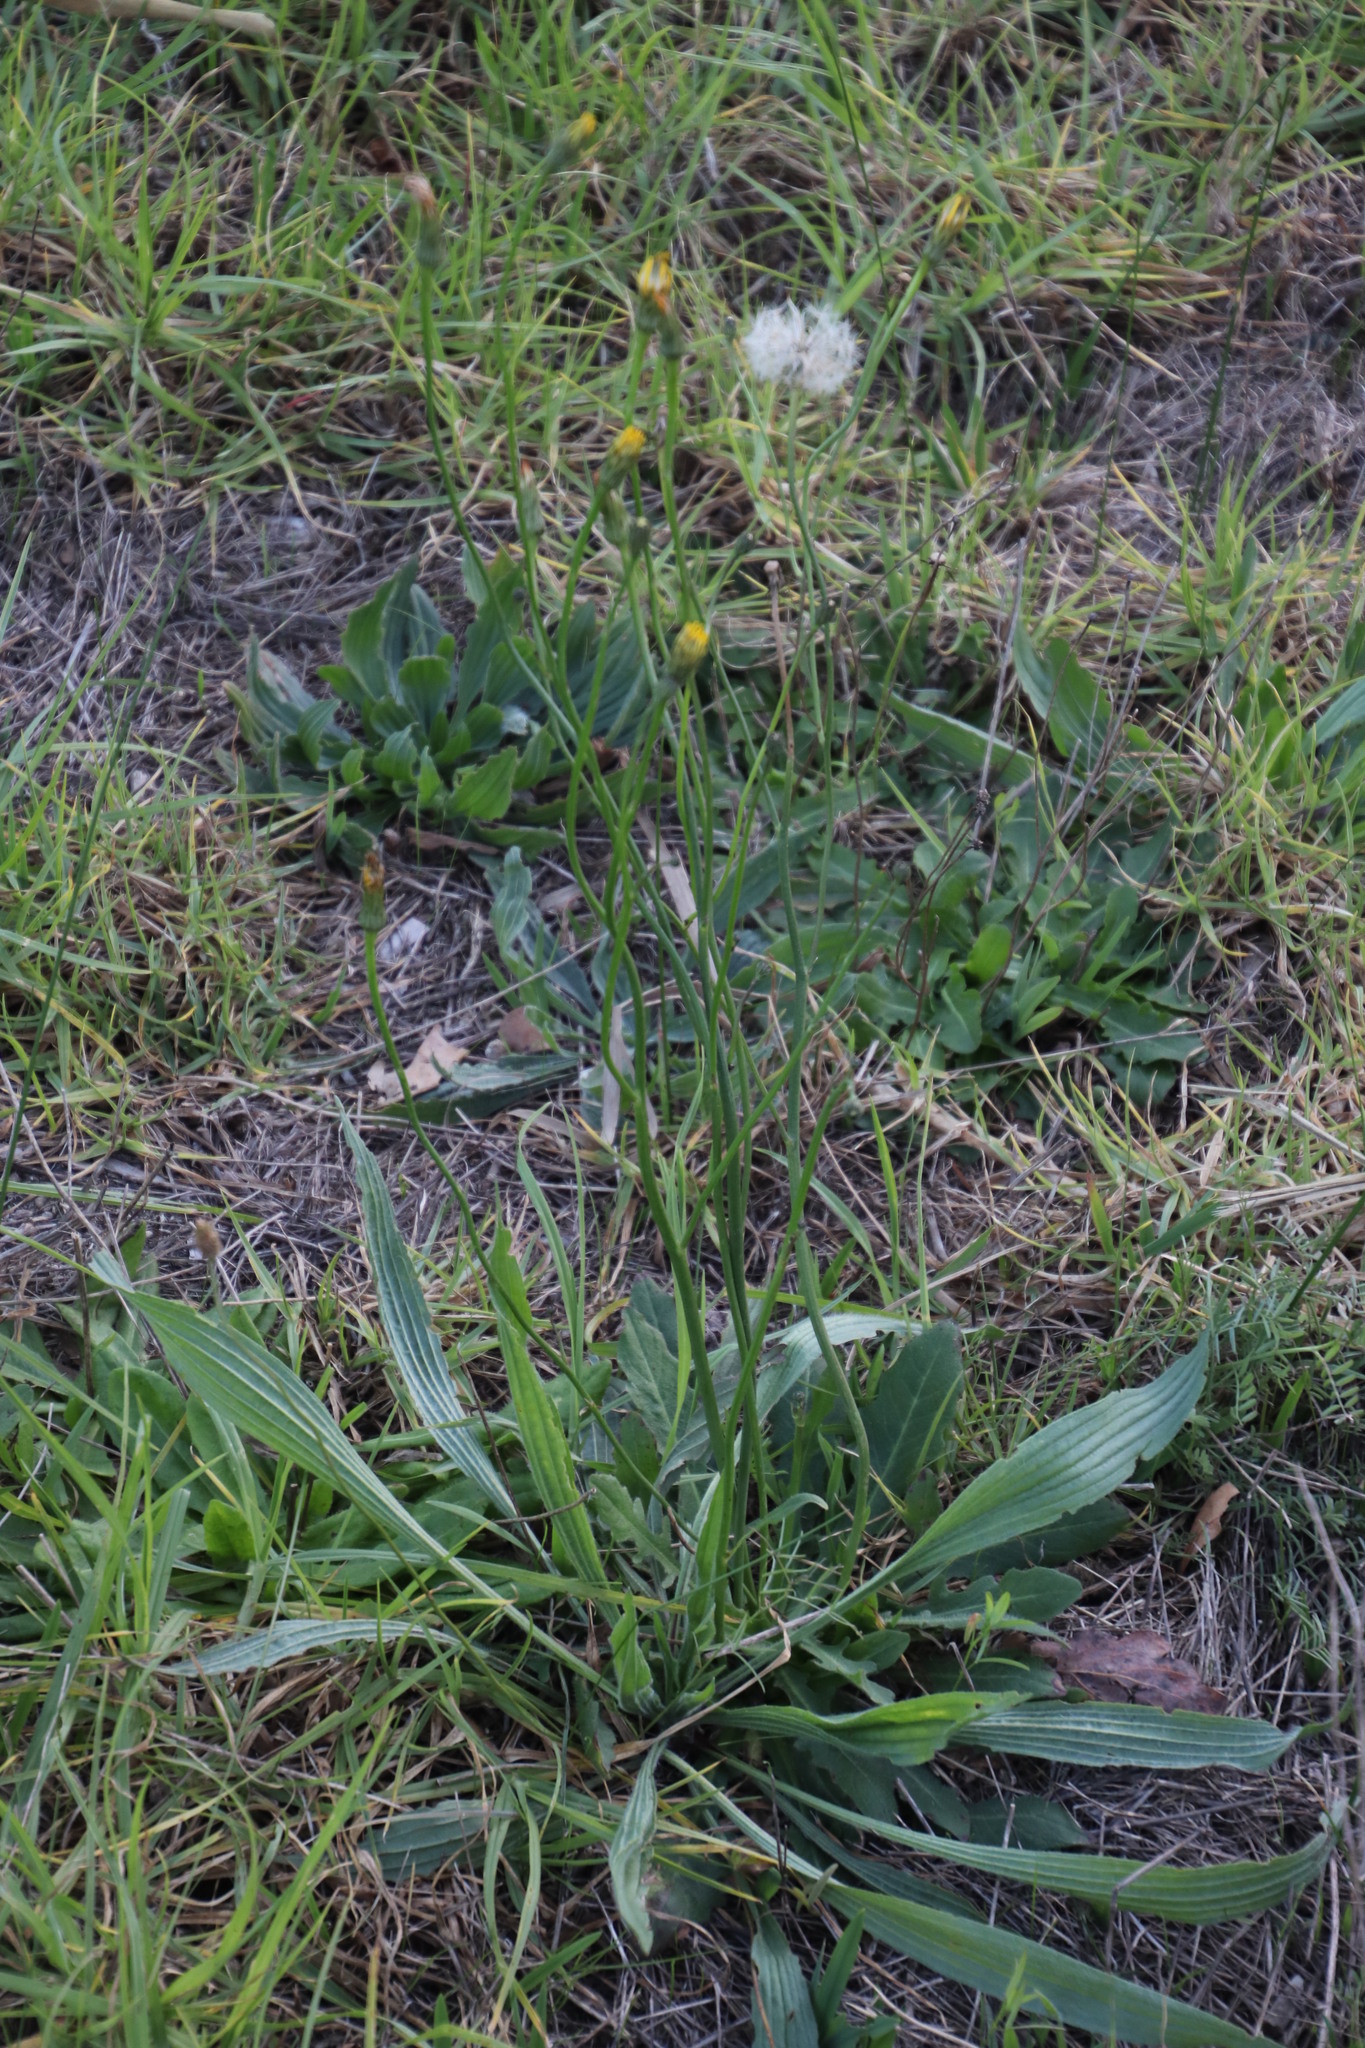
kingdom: Plantae
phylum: Tracheophyta
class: Magnoliopsida
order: Asterales
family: Asteraceae
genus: Hypochaeris
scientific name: Hypochaeris radicata
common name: Flatweed
